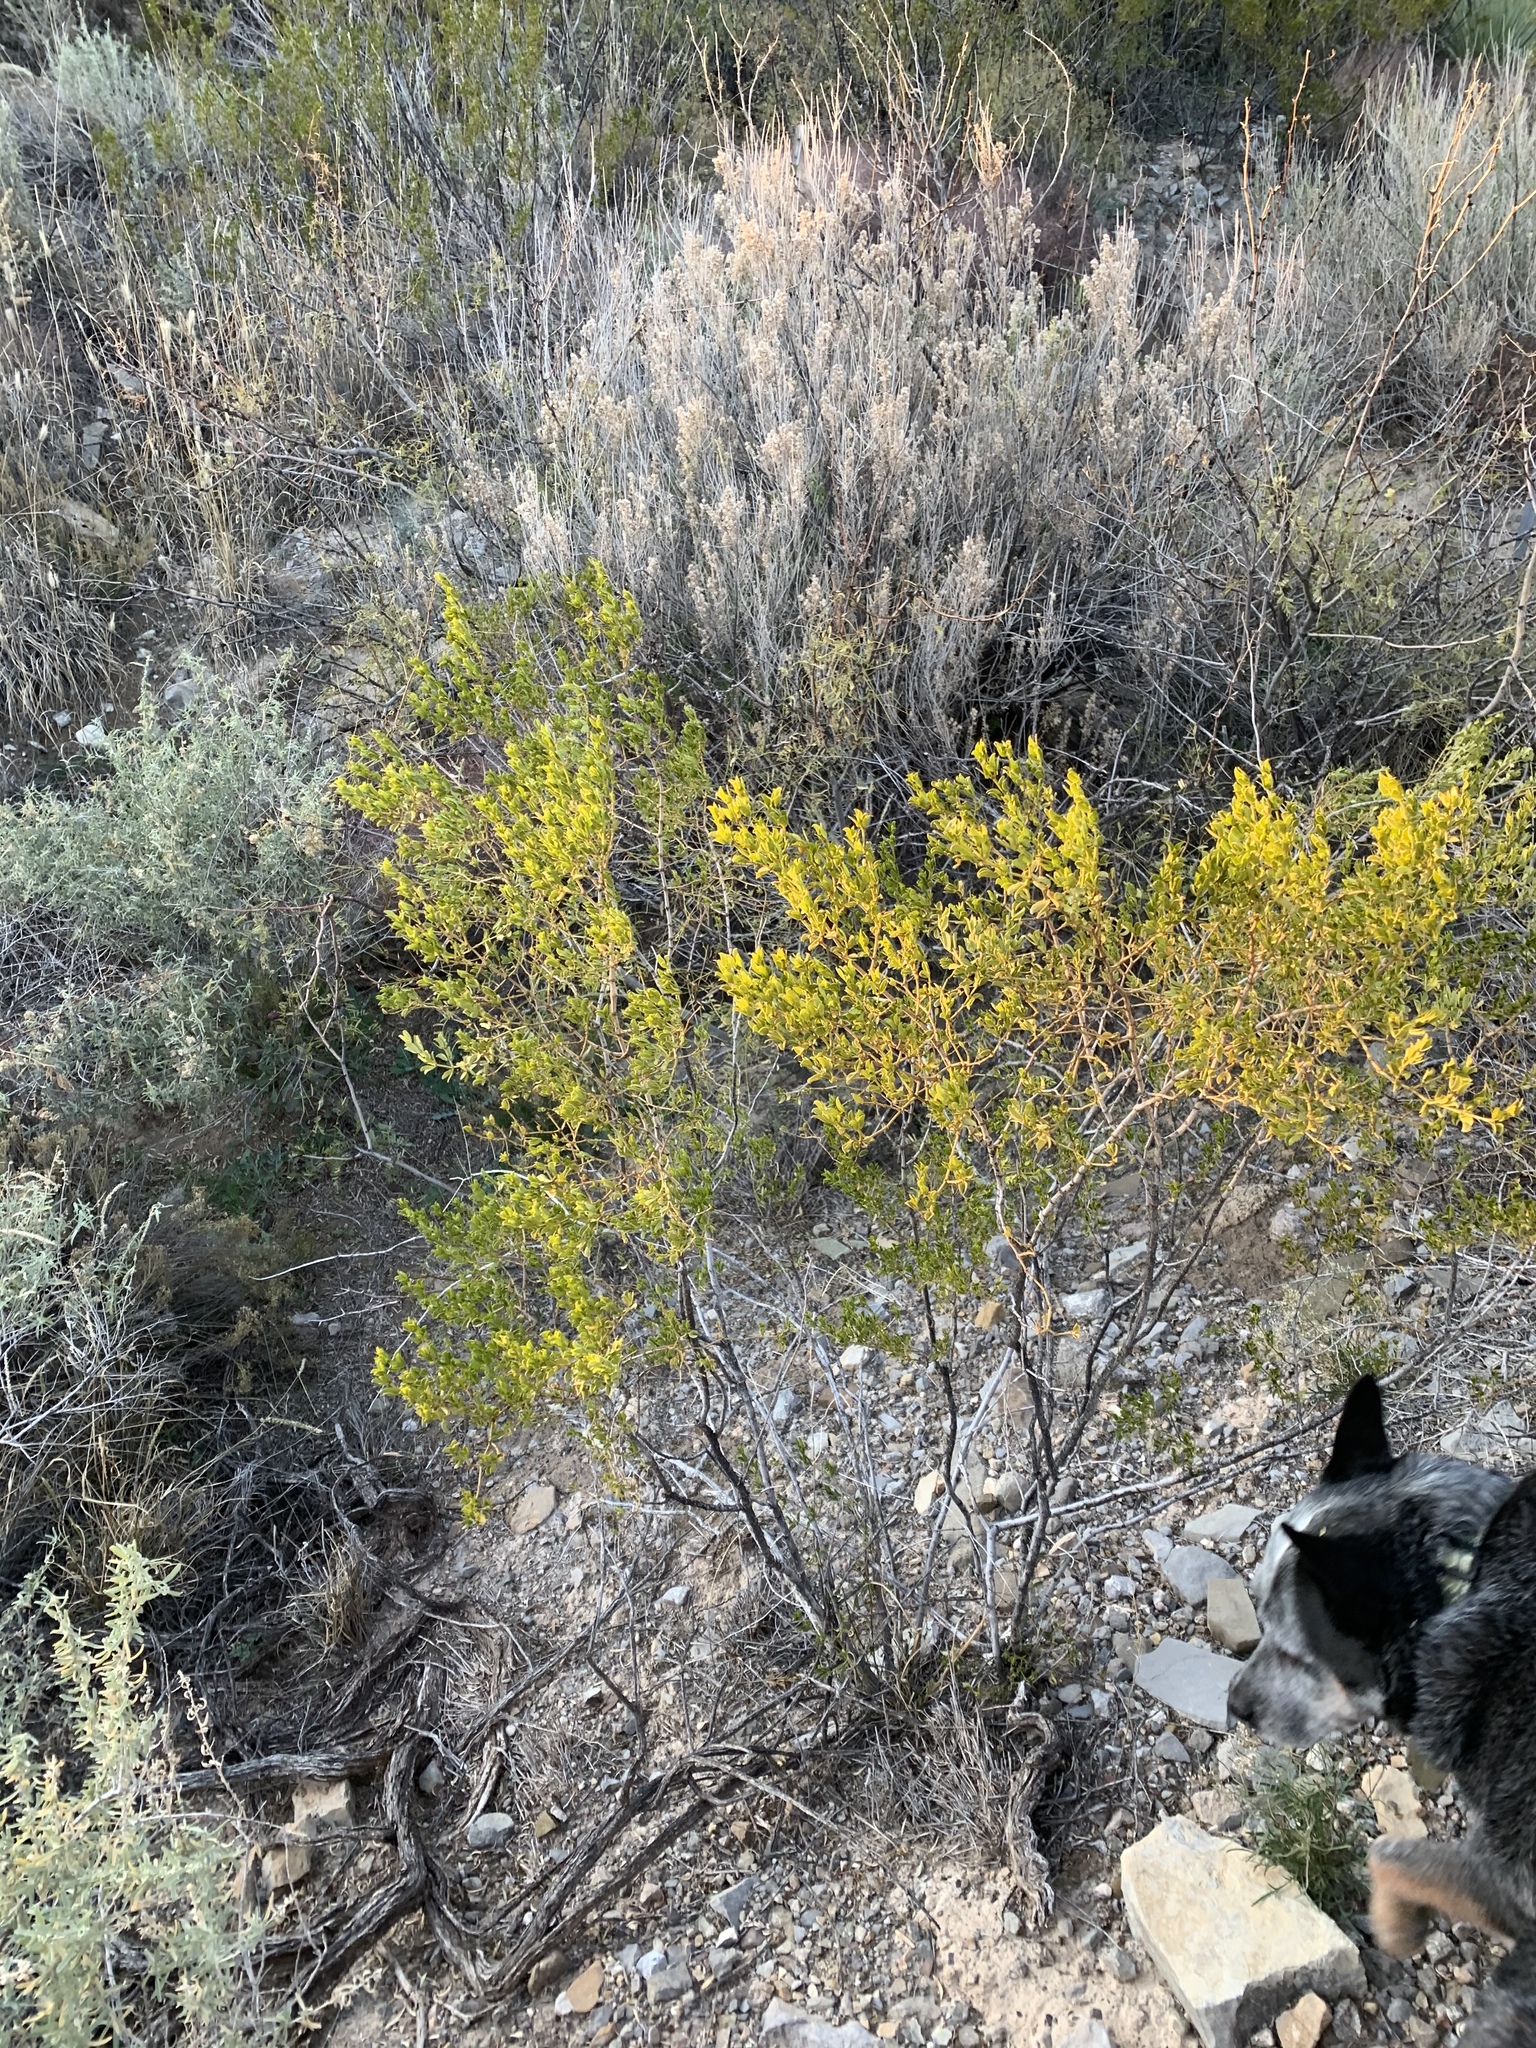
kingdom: Plantae
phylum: Tracheophyta
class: Magnoliopsida
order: Zygophyllales
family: Zygophyllaceae
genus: Larrea
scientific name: Larrea tridentata
